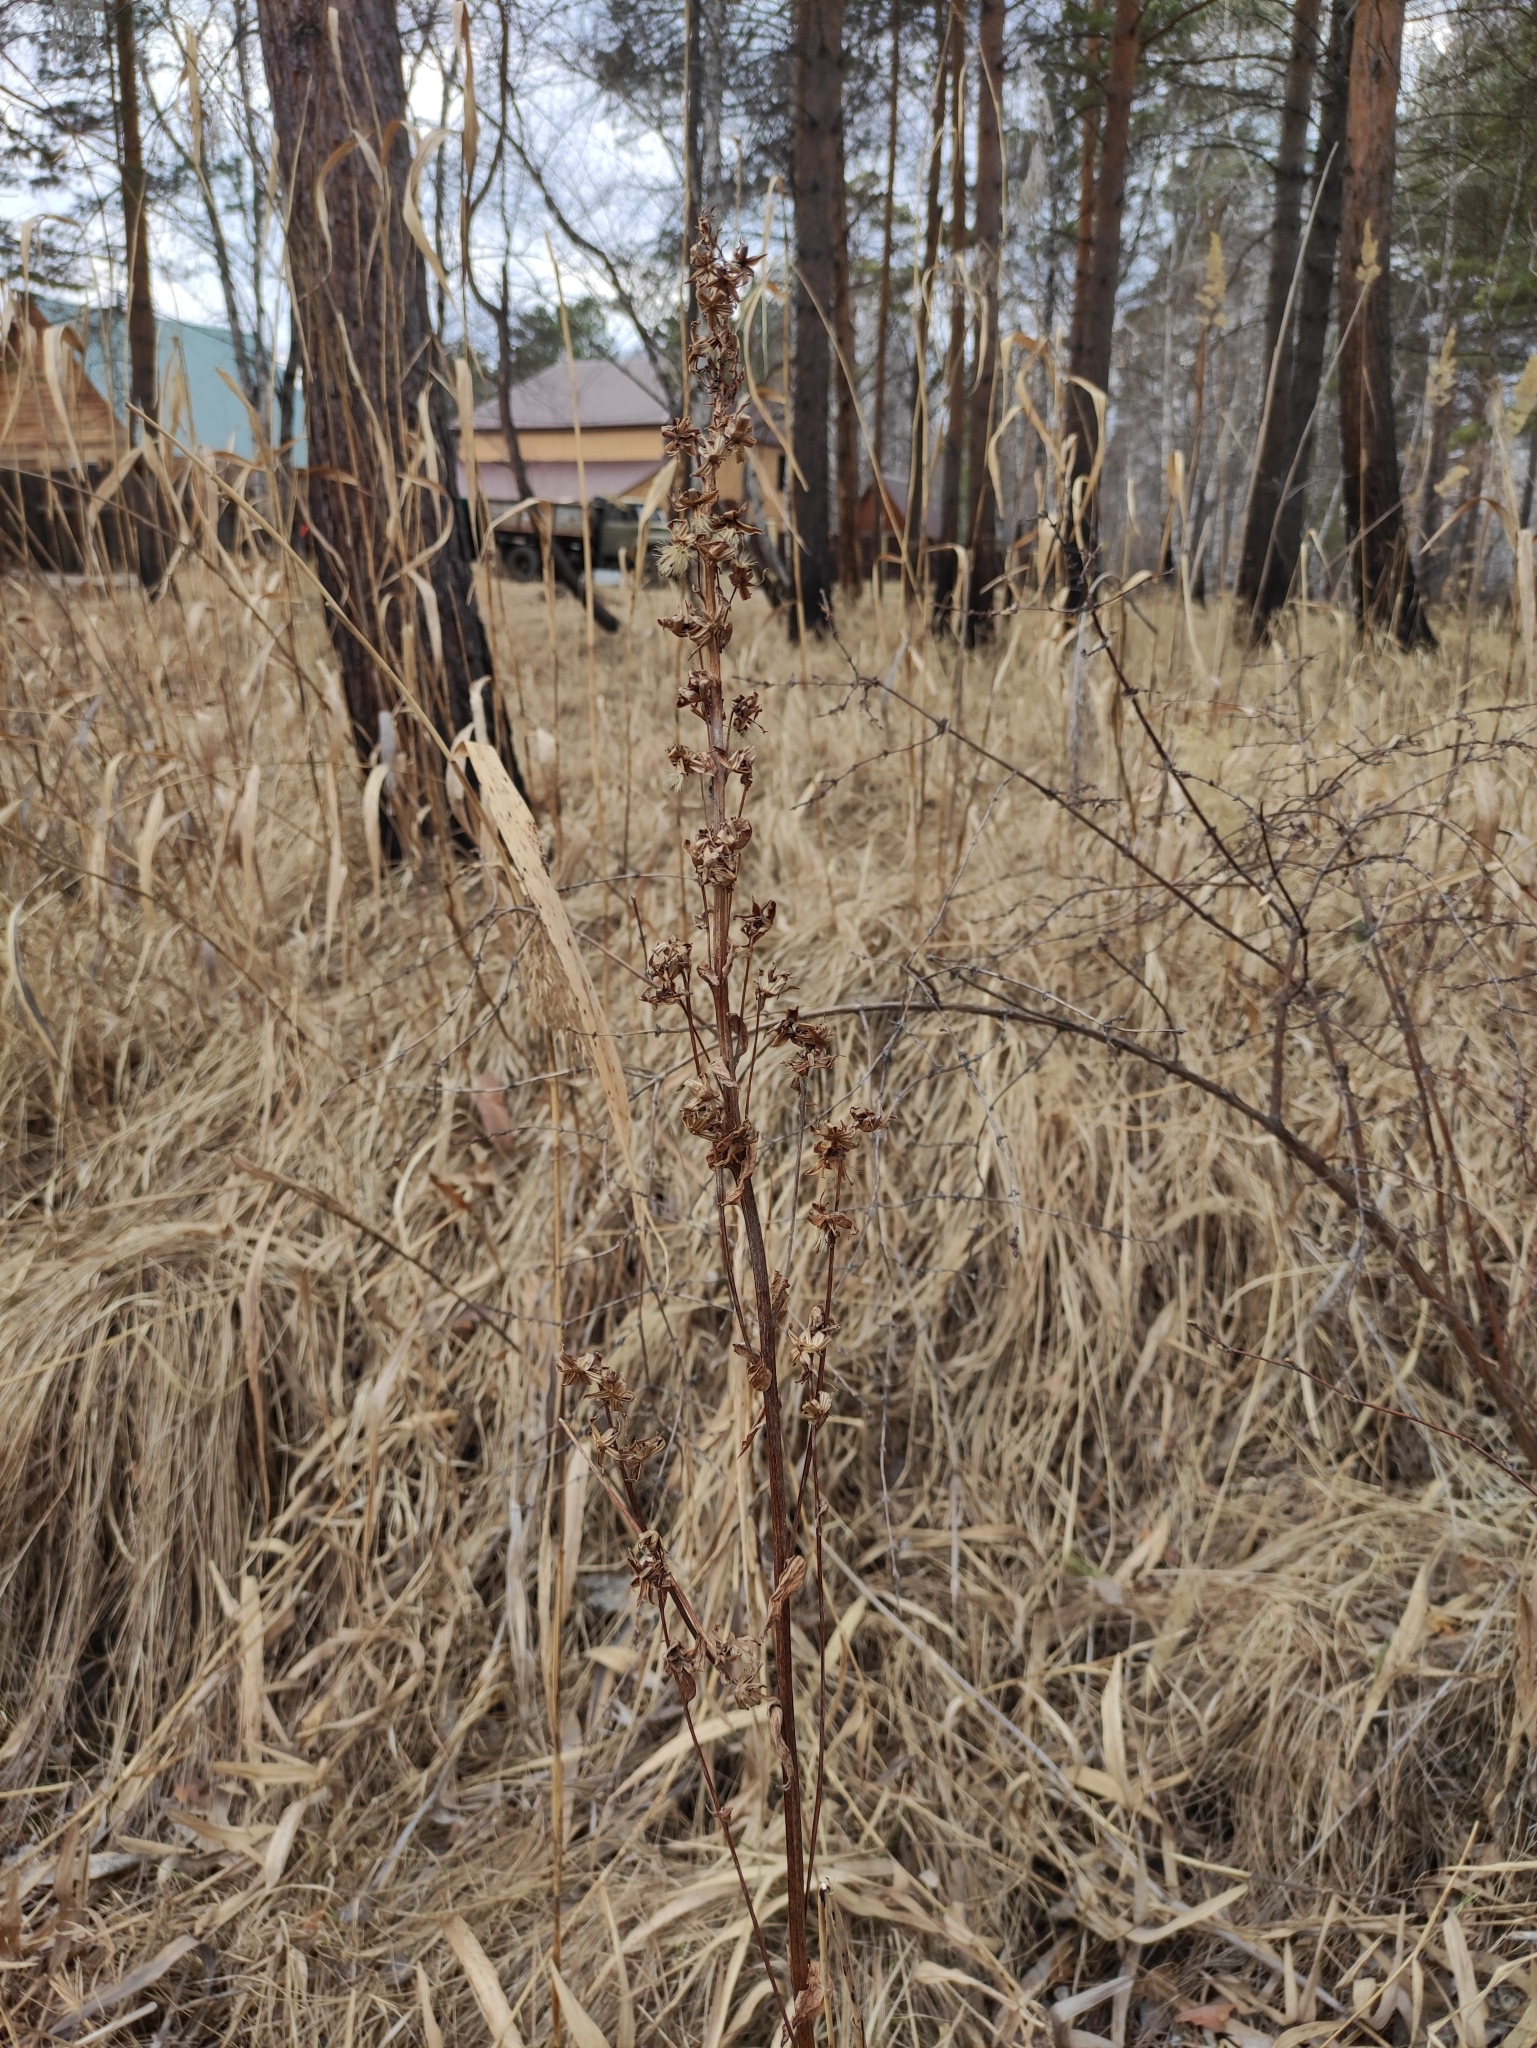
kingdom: Plantae
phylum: Tracheophyta
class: Magnoliopsida
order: Asterales
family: Asteraceae
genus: Ligularia
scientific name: Ligularia sibirica
